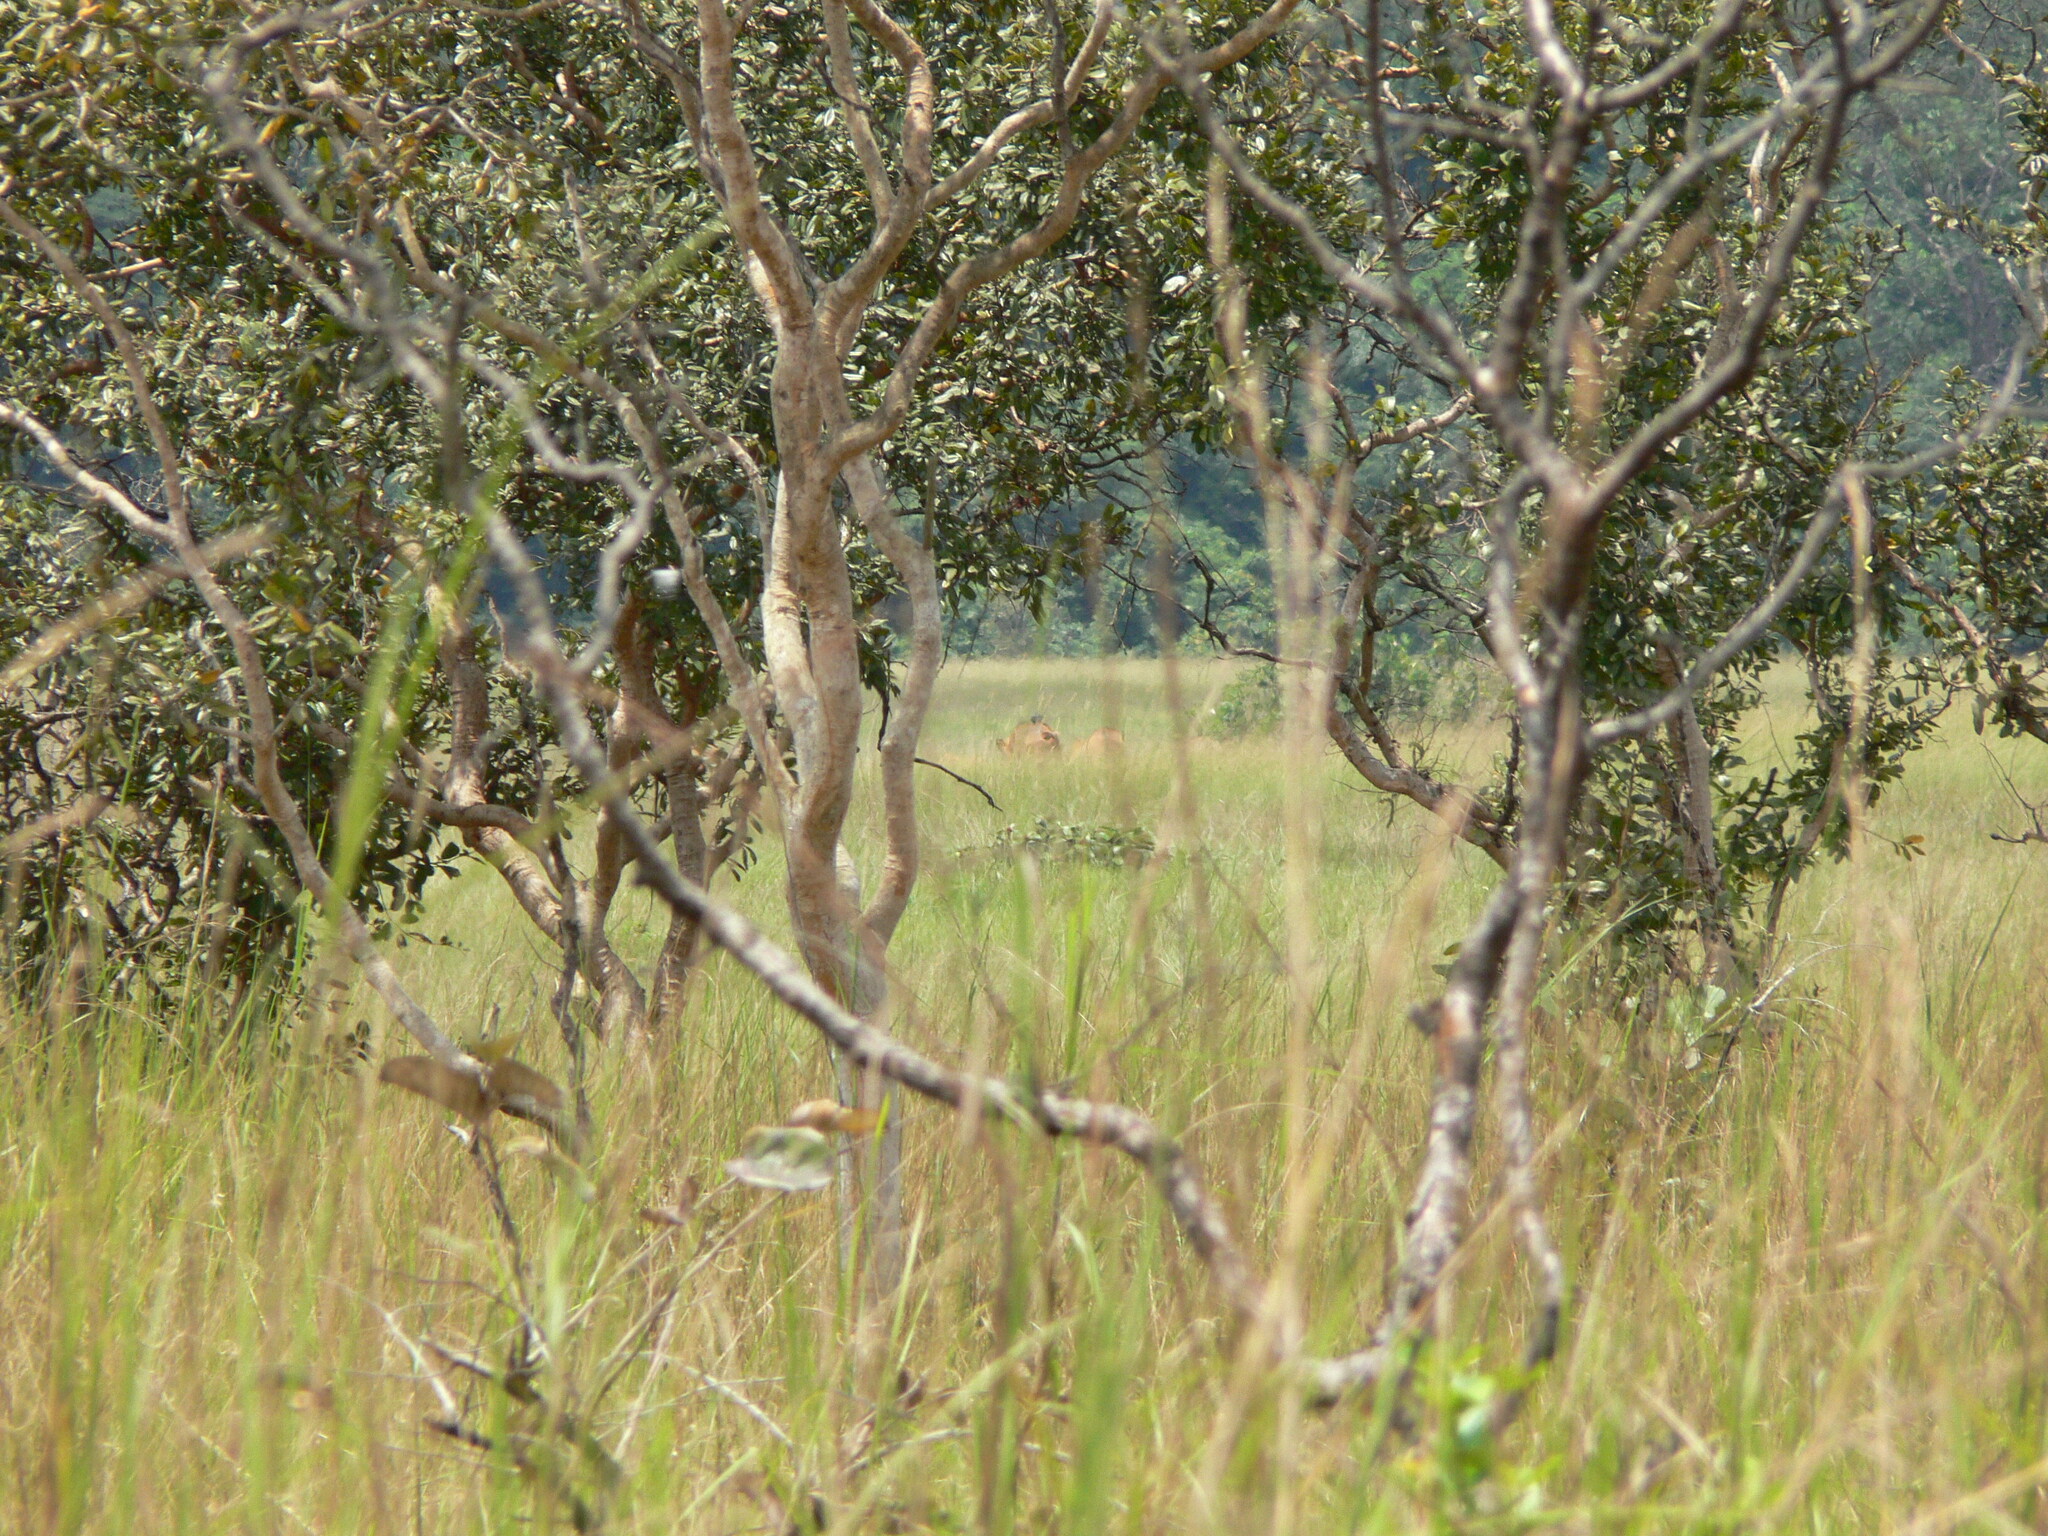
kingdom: Animalia
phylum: Chordata
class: Mammalia
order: Artiodactyla
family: Bovidae
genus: Syncerus
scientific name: Syncerus caffer
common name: African buffalo
